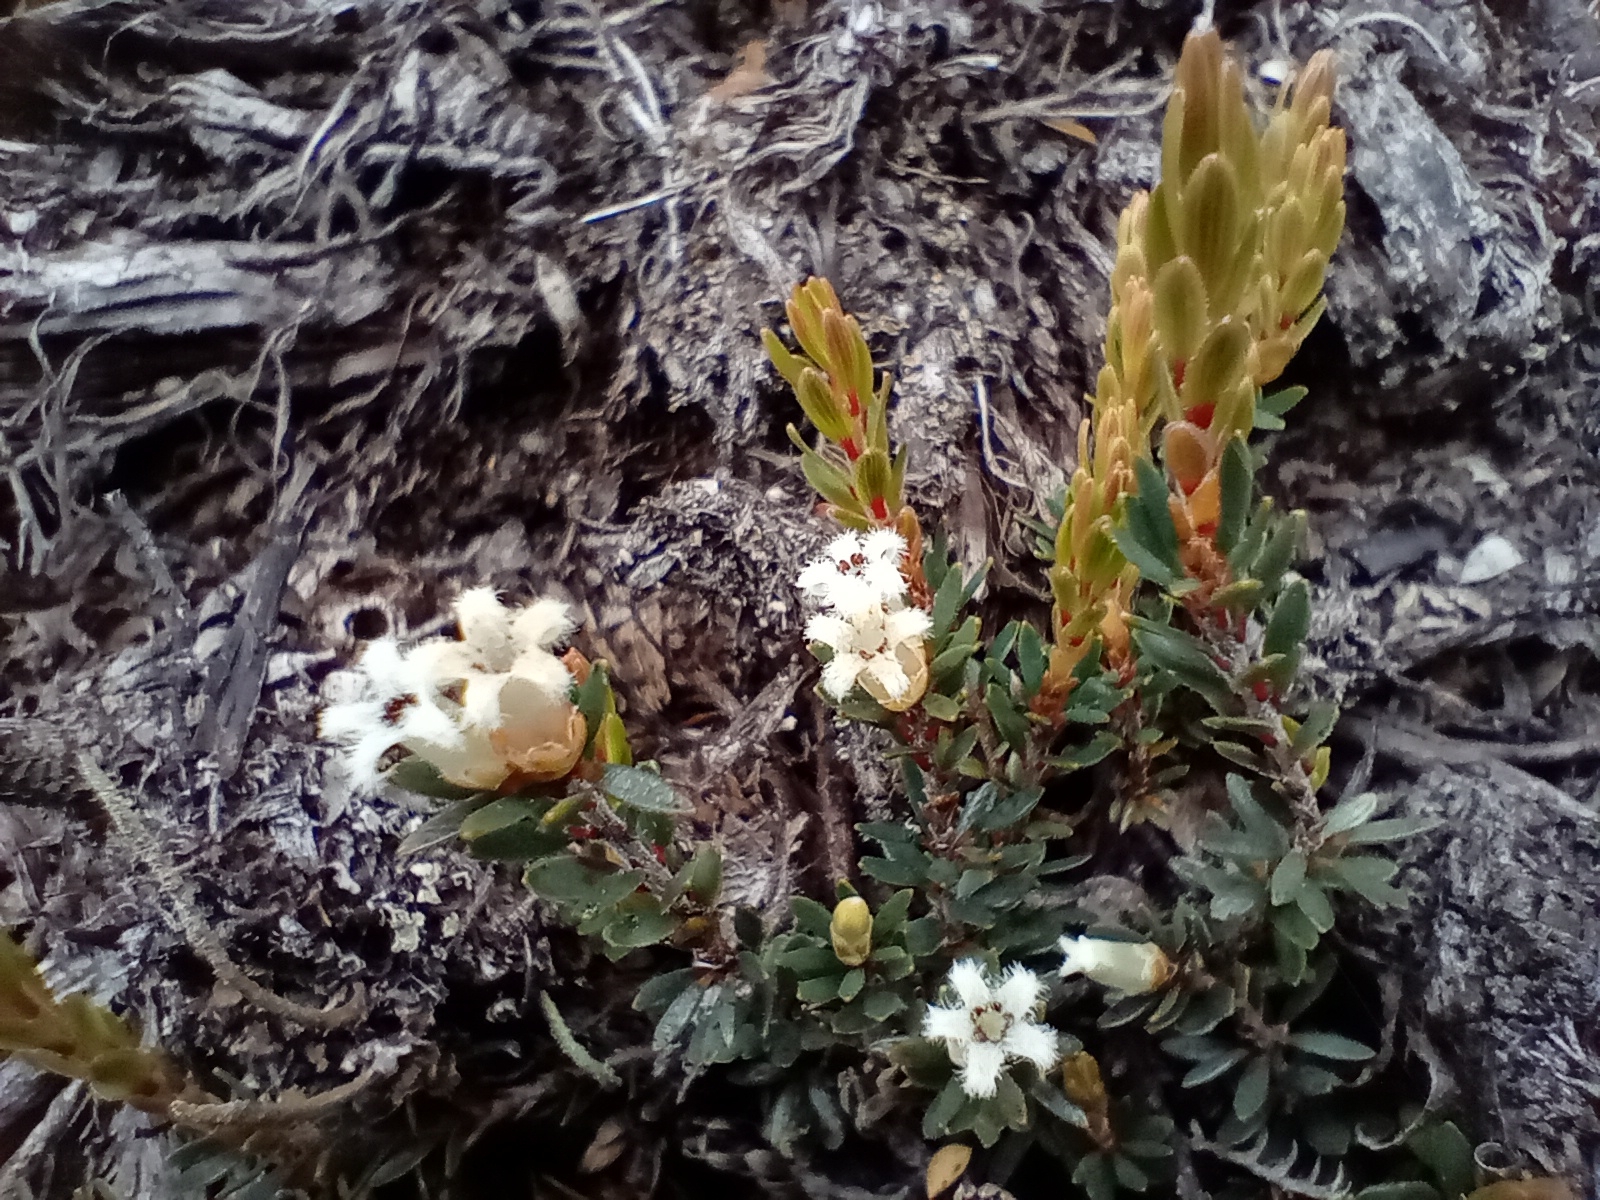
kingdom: Plantae
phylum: Tracheophyta
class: Magnoliopsida
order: Ericales
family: Ericaceae
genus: Pentachondra
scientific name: Pentachondra pumila
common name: Carpet-heath
